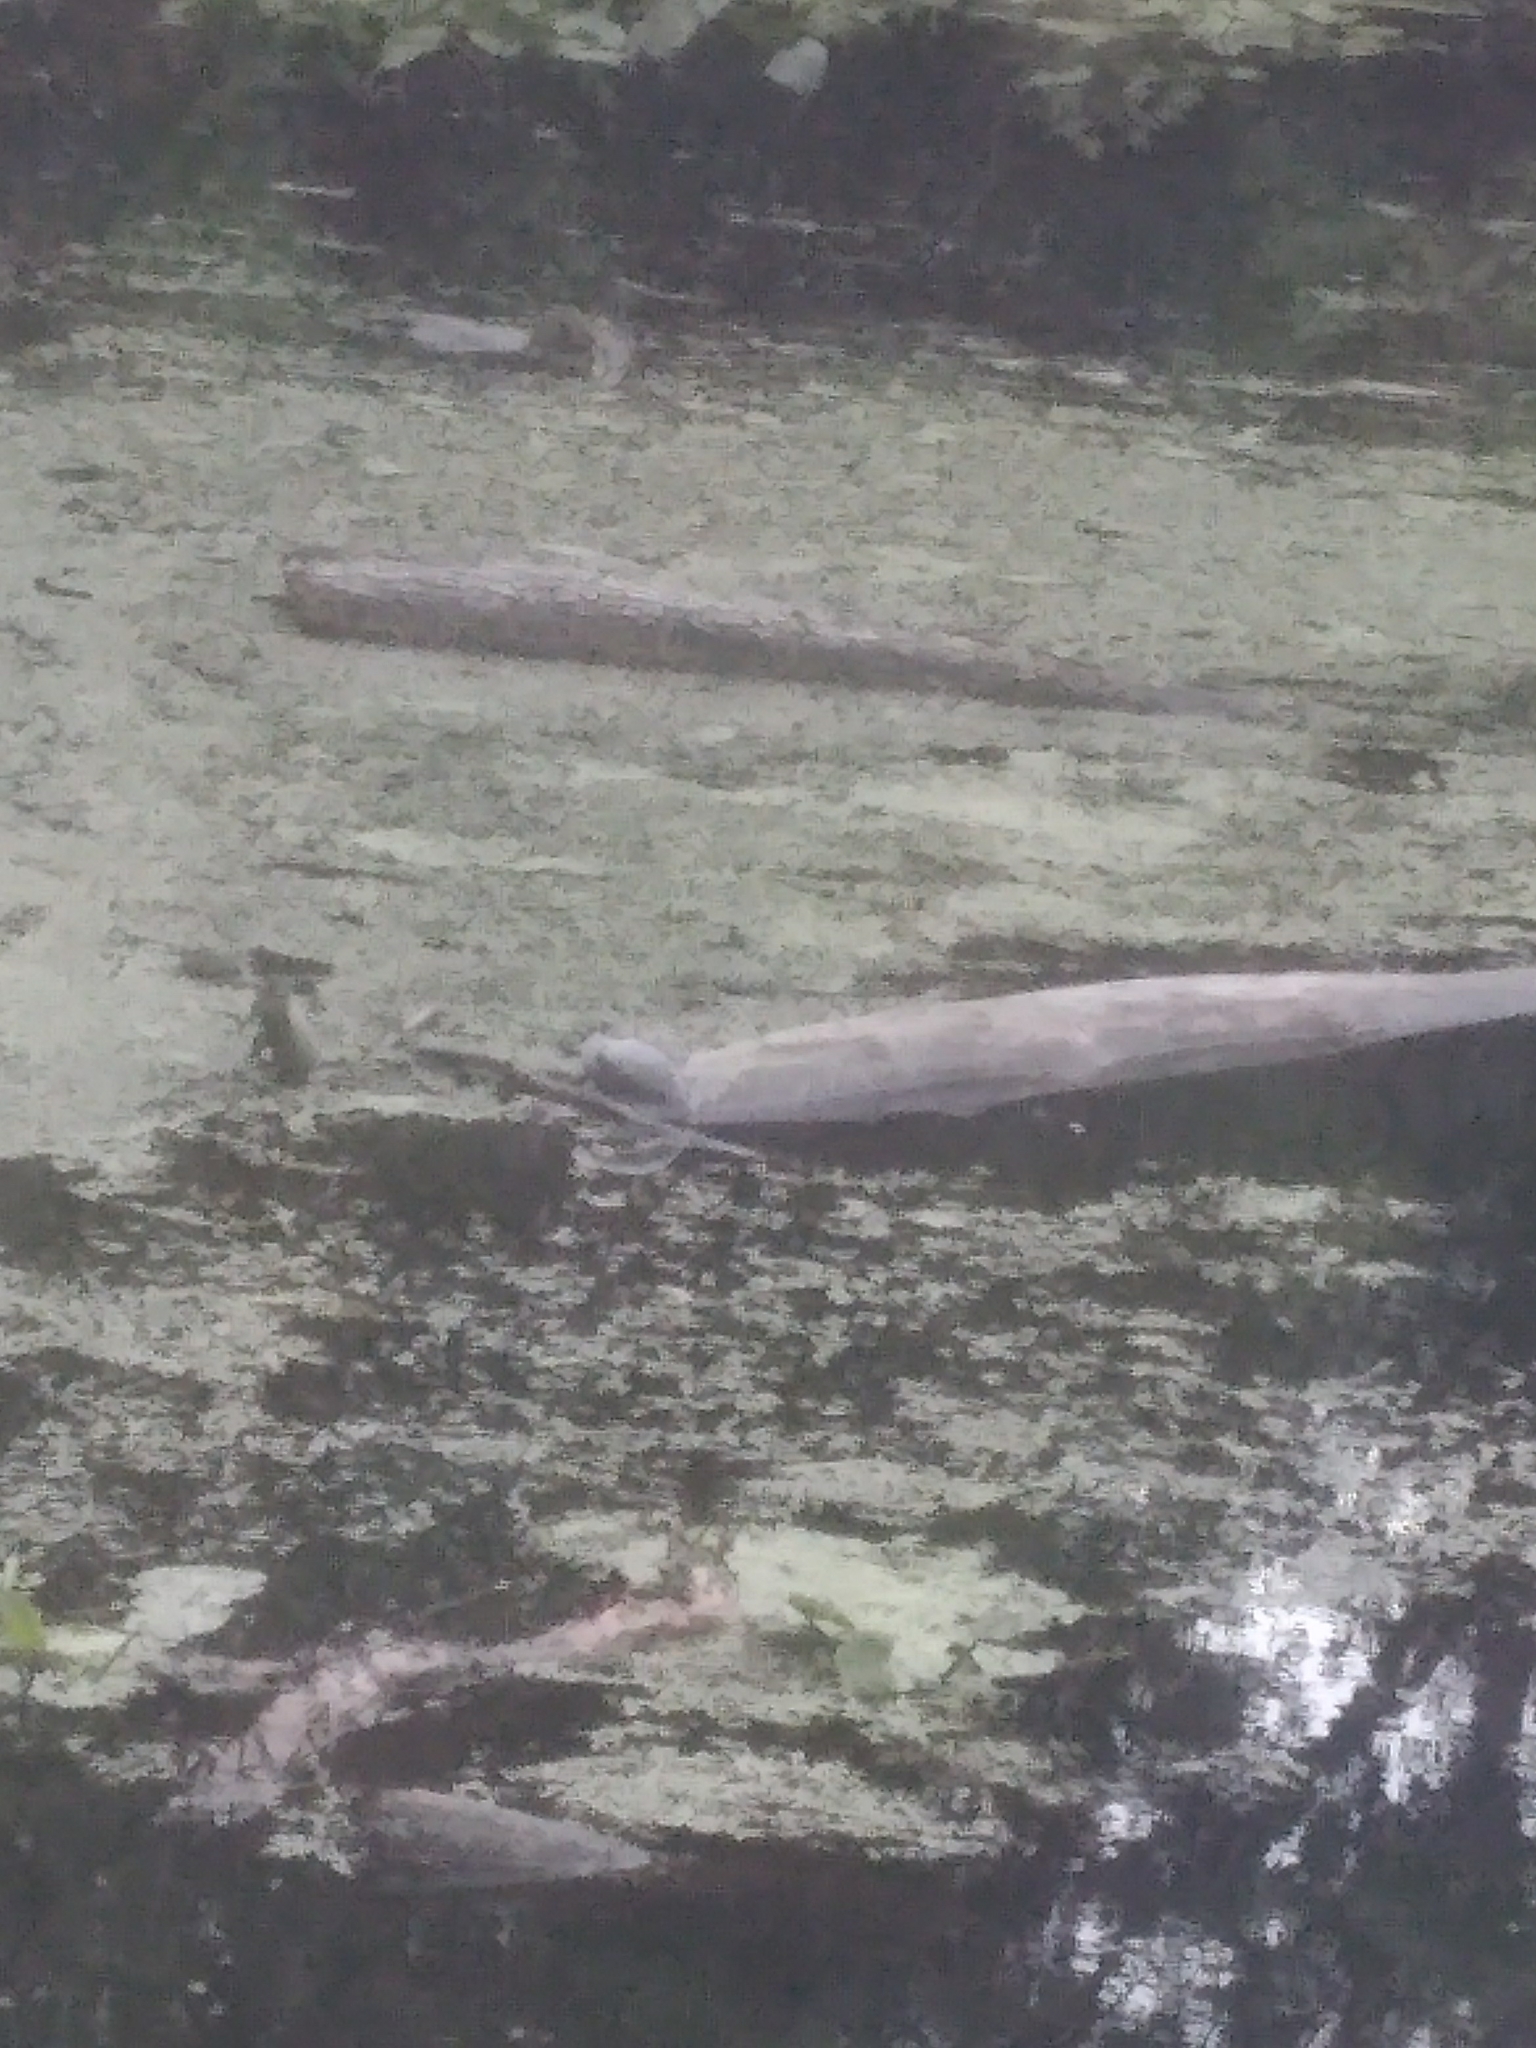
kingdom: Animalia
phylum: Chordata
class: Testudines
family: Emydidae
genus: Chrysemys
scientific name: Chrysemys picta
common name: Painted turtle
